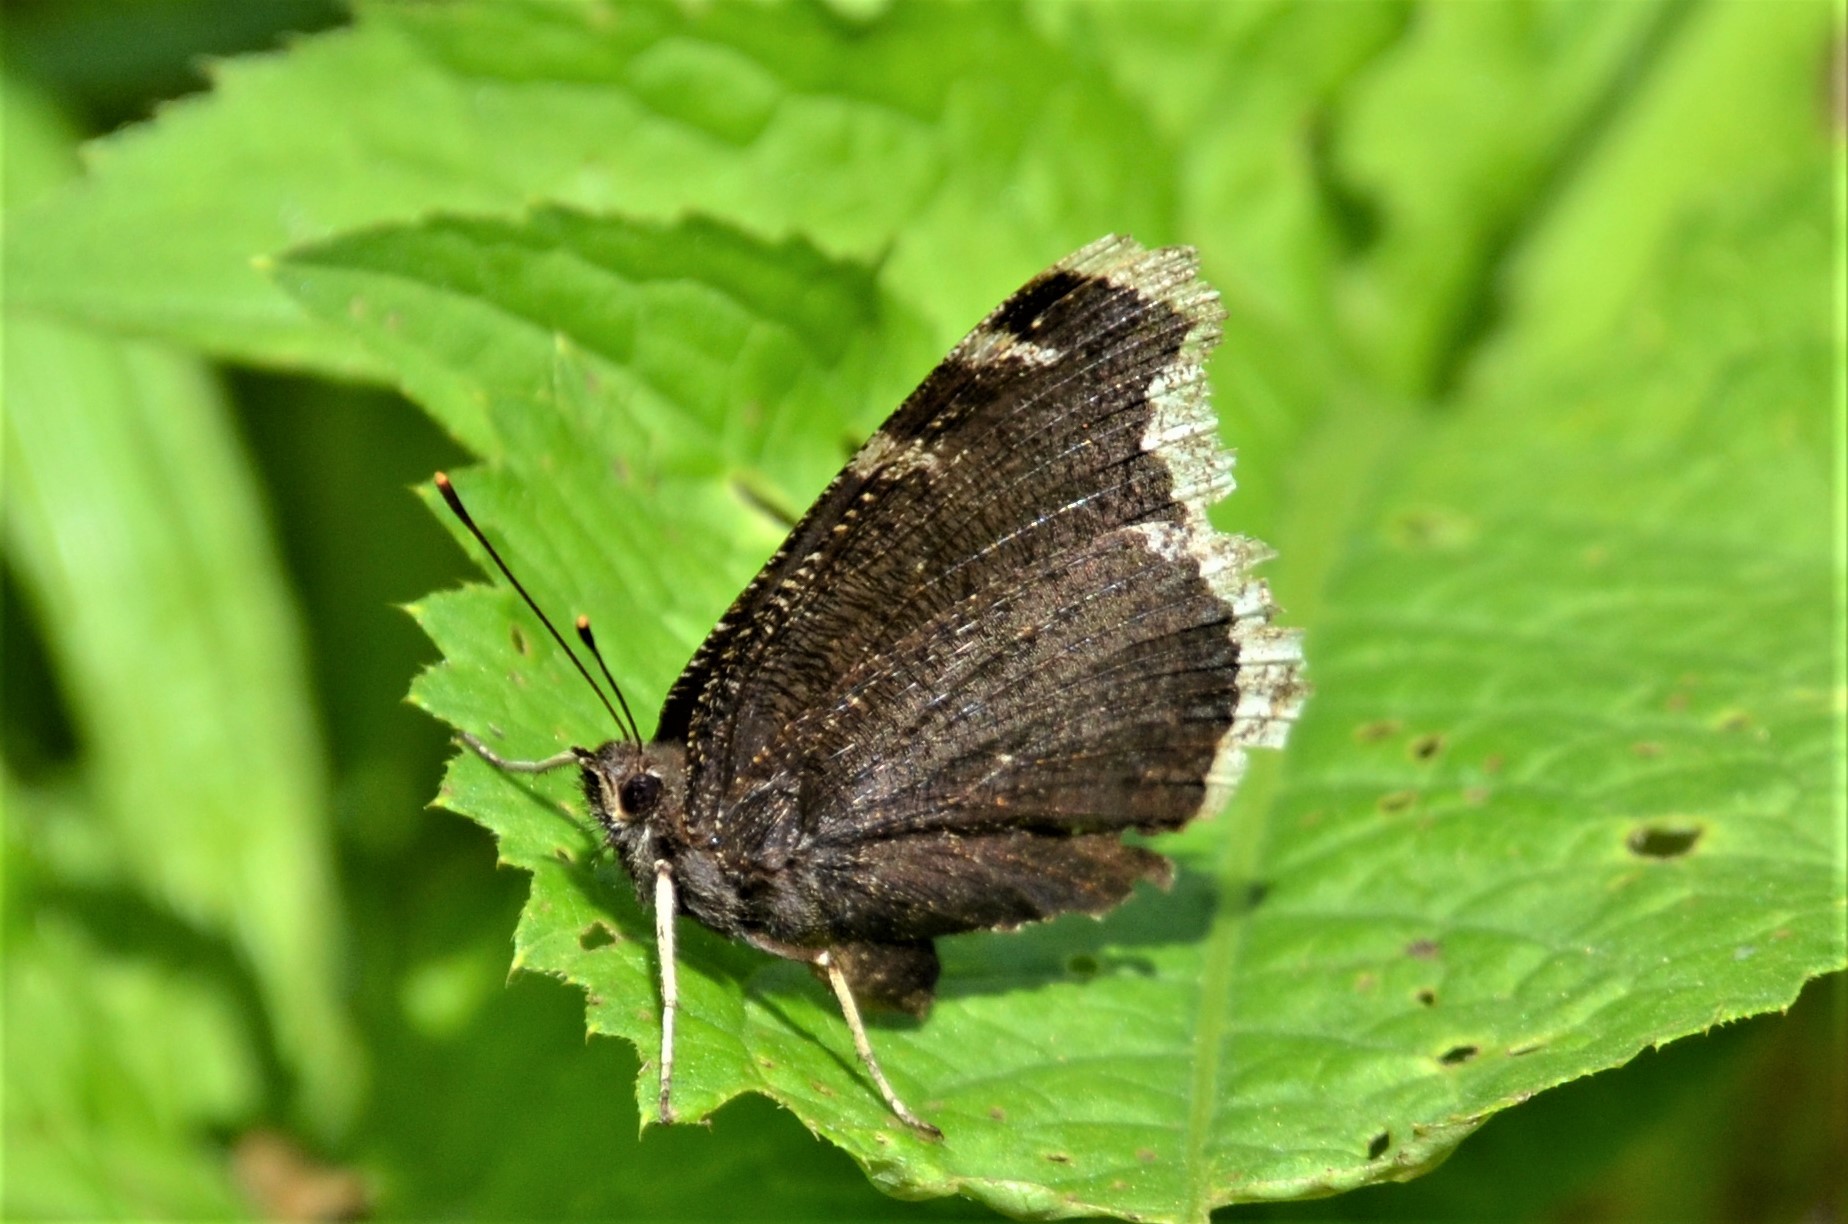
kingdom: Animalia
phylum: Arthropoda
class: Insecta
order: Lepidoptera
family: Nymphalidae
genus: Nymphalis
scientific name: Nymphalis antiopa
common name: Camberwell beauty
